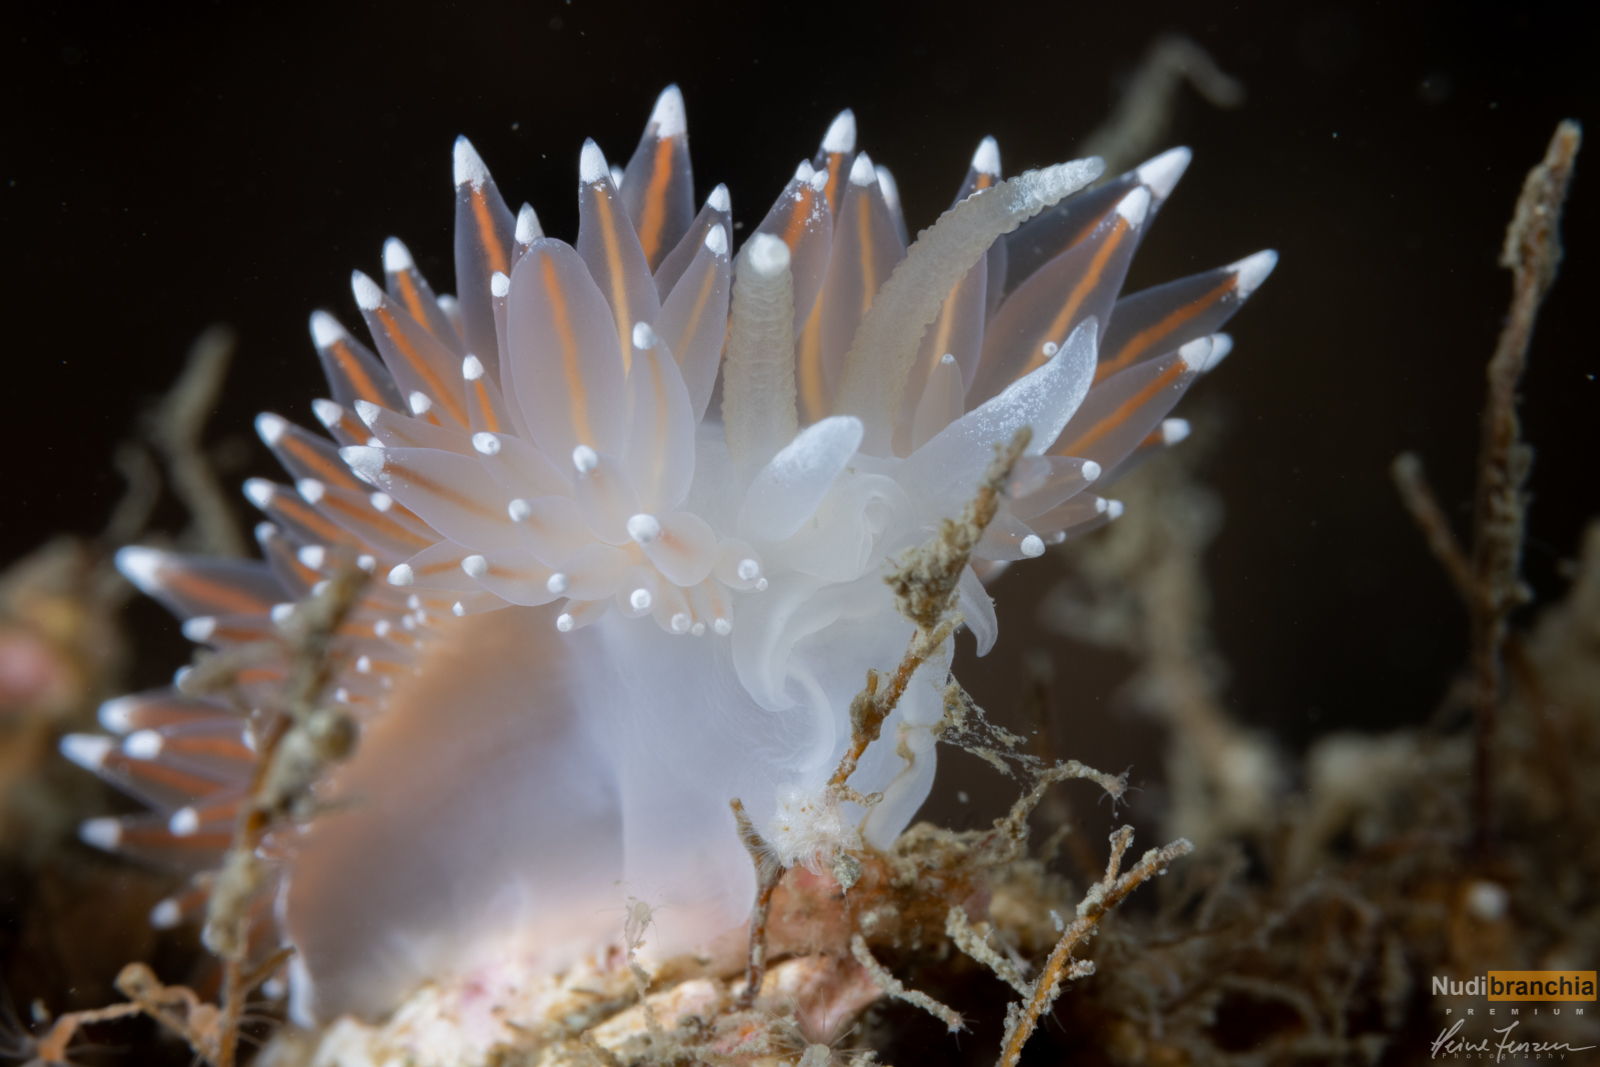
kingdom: Animalia
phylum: Mollusca
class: Gastropoda
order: Nudibranchia
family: Coryphellidae
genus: Coryphella
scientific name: Coryphella nobilis
